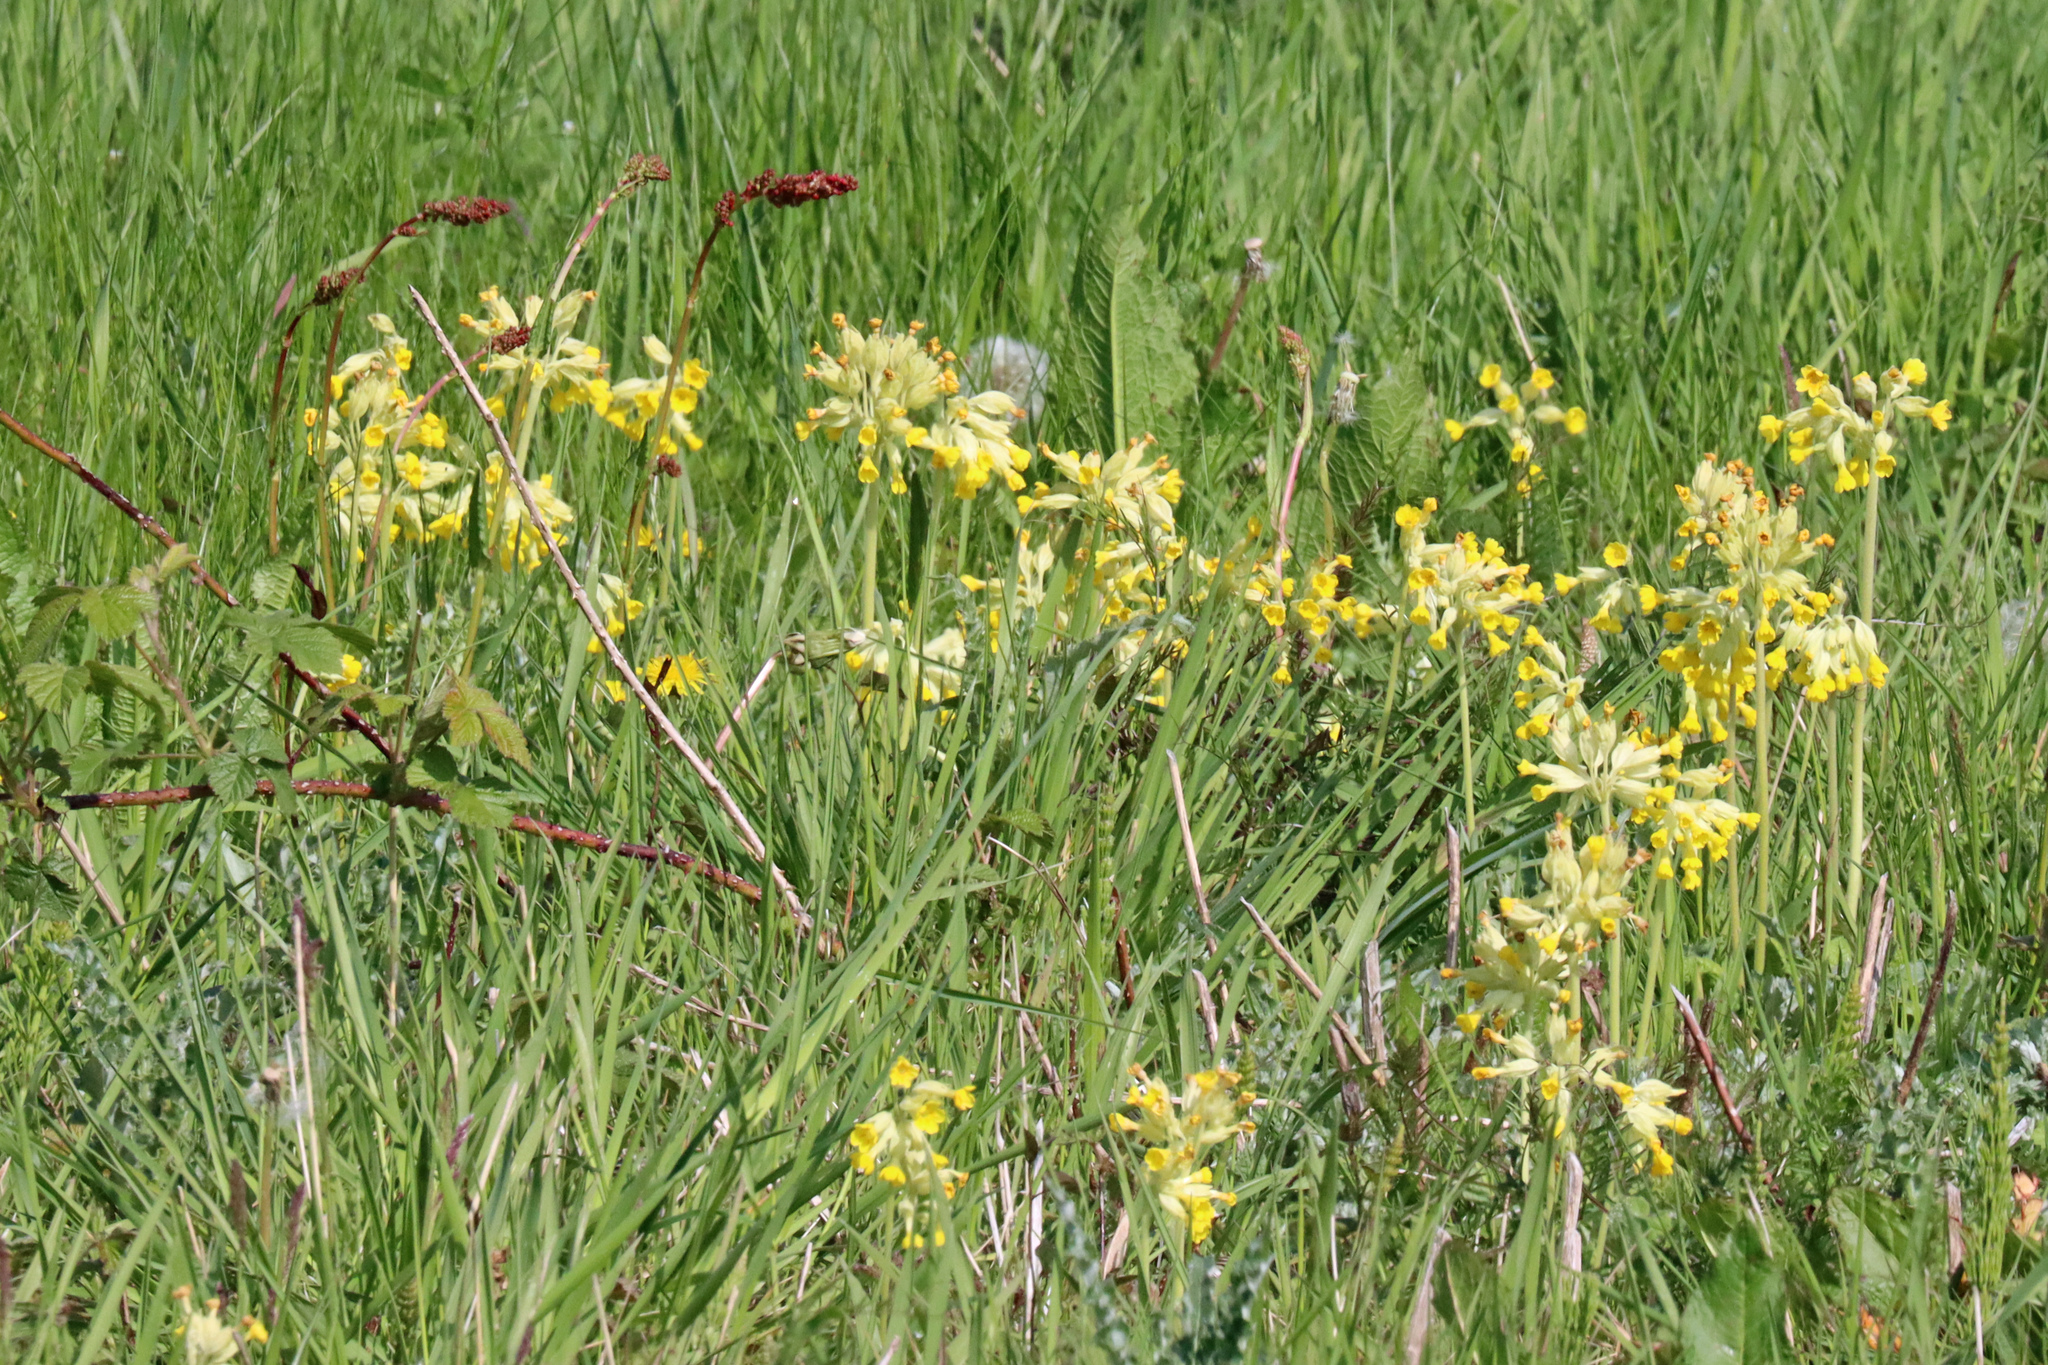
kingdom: Plantae
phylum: Tracheophyta
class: Magnoliopsida
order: Ericales
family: Primulaceae
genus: Primula
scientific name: Primula veris
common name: Cowslip
